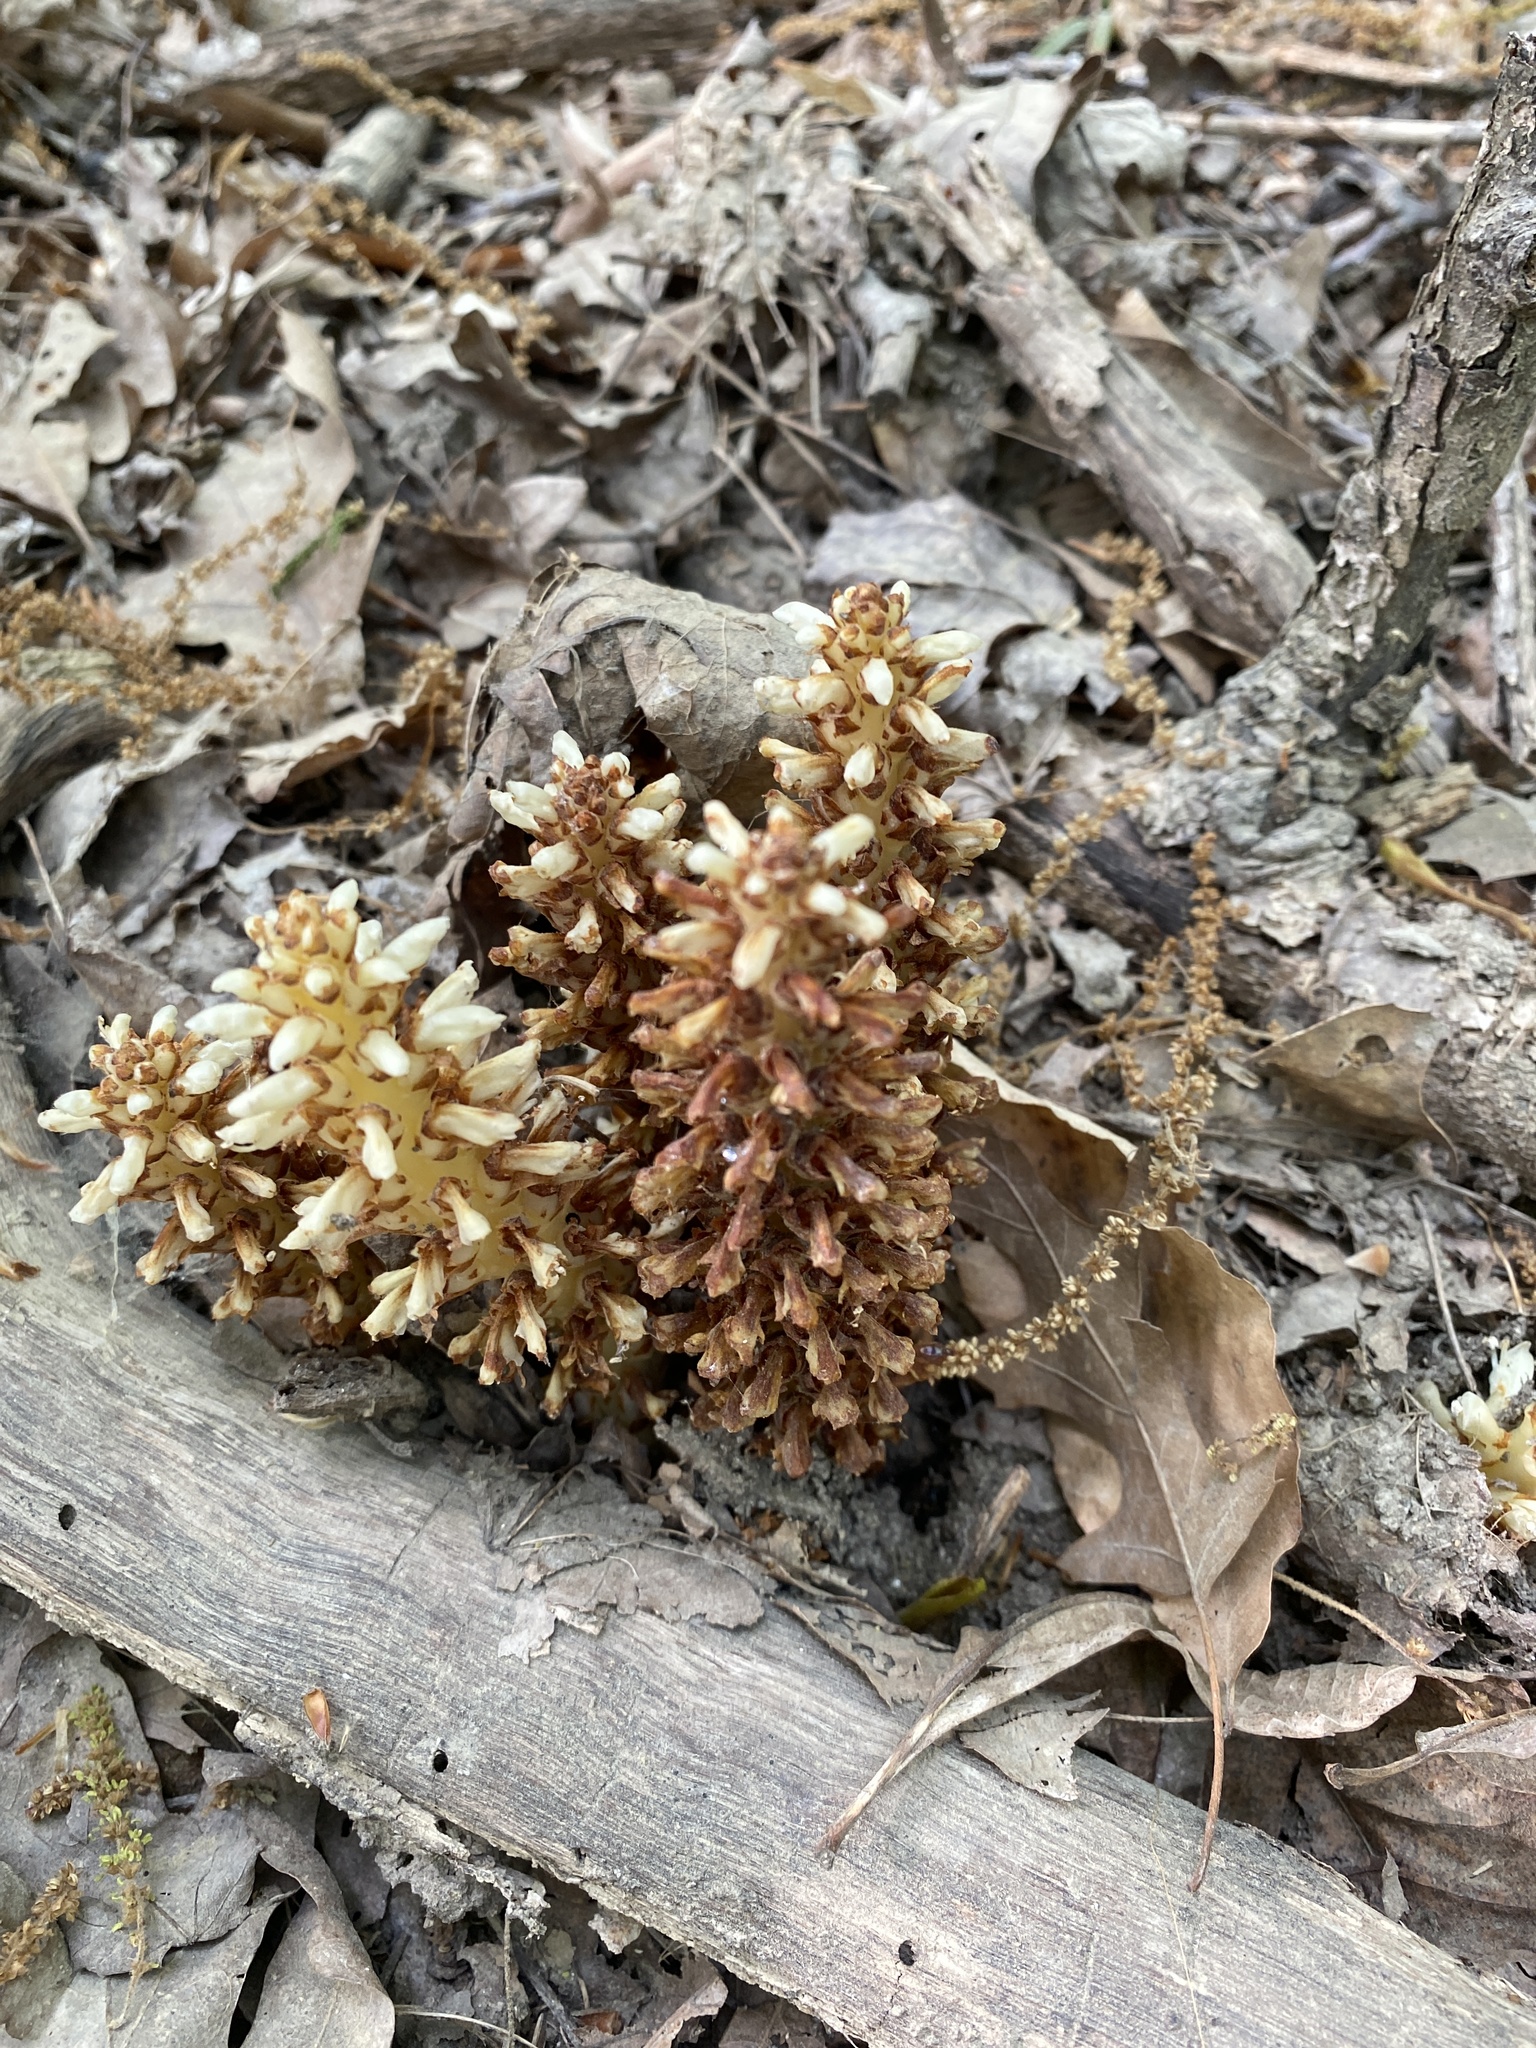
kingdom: Plantae
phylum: Tracheophyta
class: Magnoliopsida
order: Lamiales
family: Orobanchaceae
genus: Conopholis
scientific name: Conopholis americana
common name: American cancer-root
